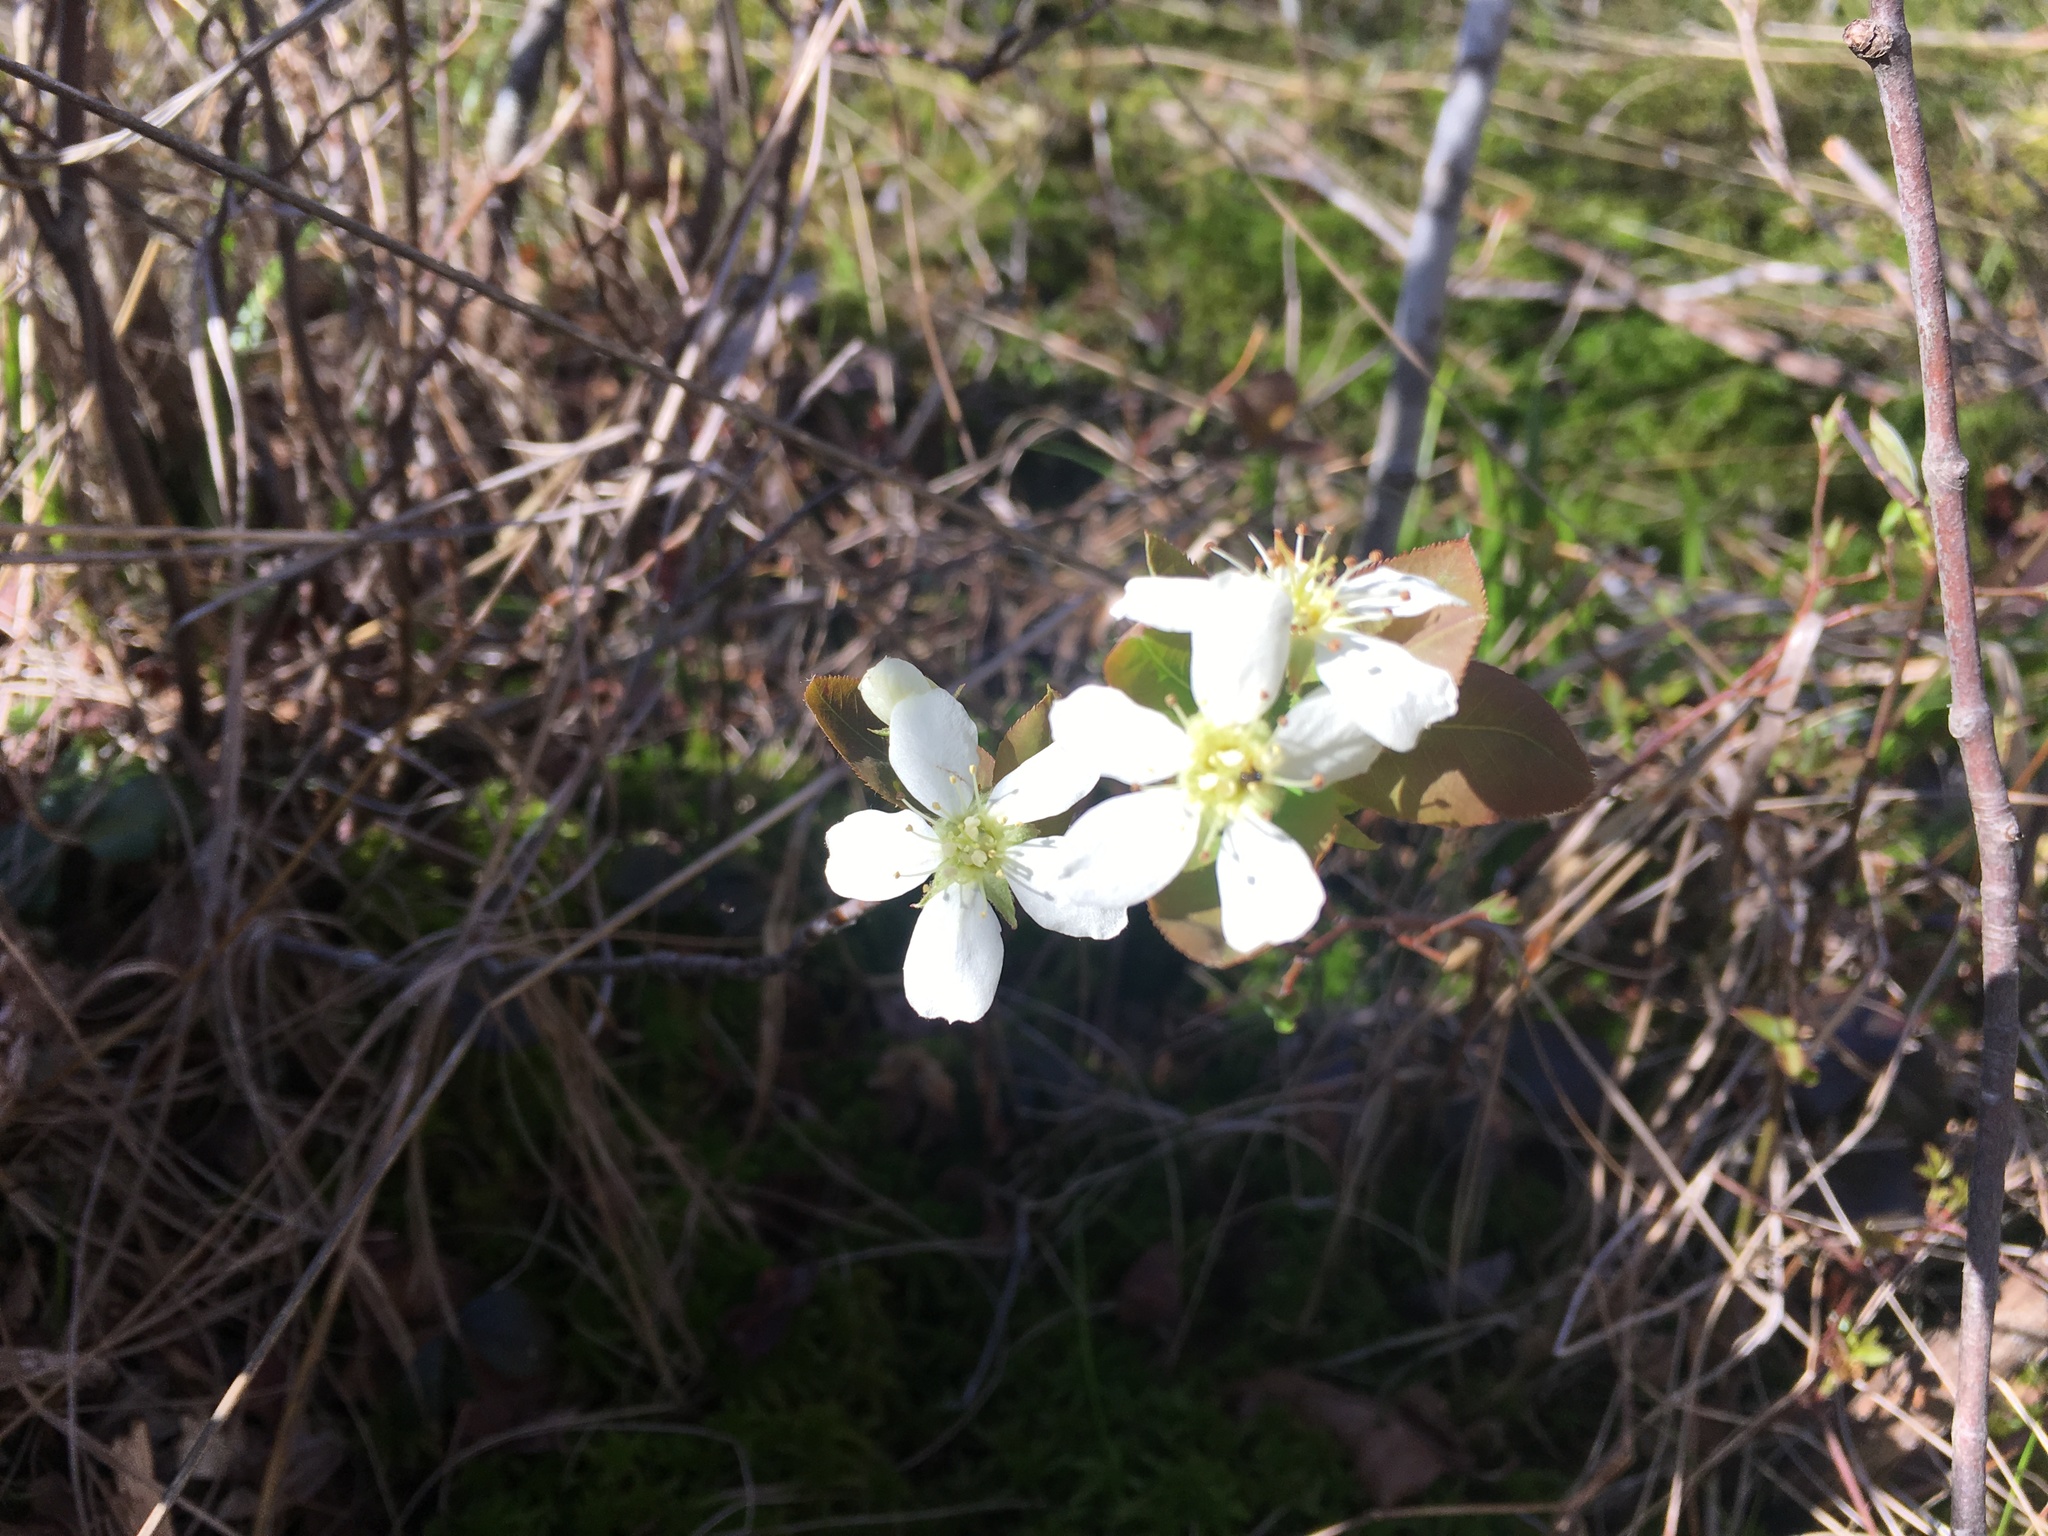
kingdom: Plantae
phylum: Tracheophyta
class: Magnoliopsida
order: Rosales
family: Rosaceae
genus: Amelanchier
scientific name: Amelanchier bartramiana
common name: Mountain serviceberry
